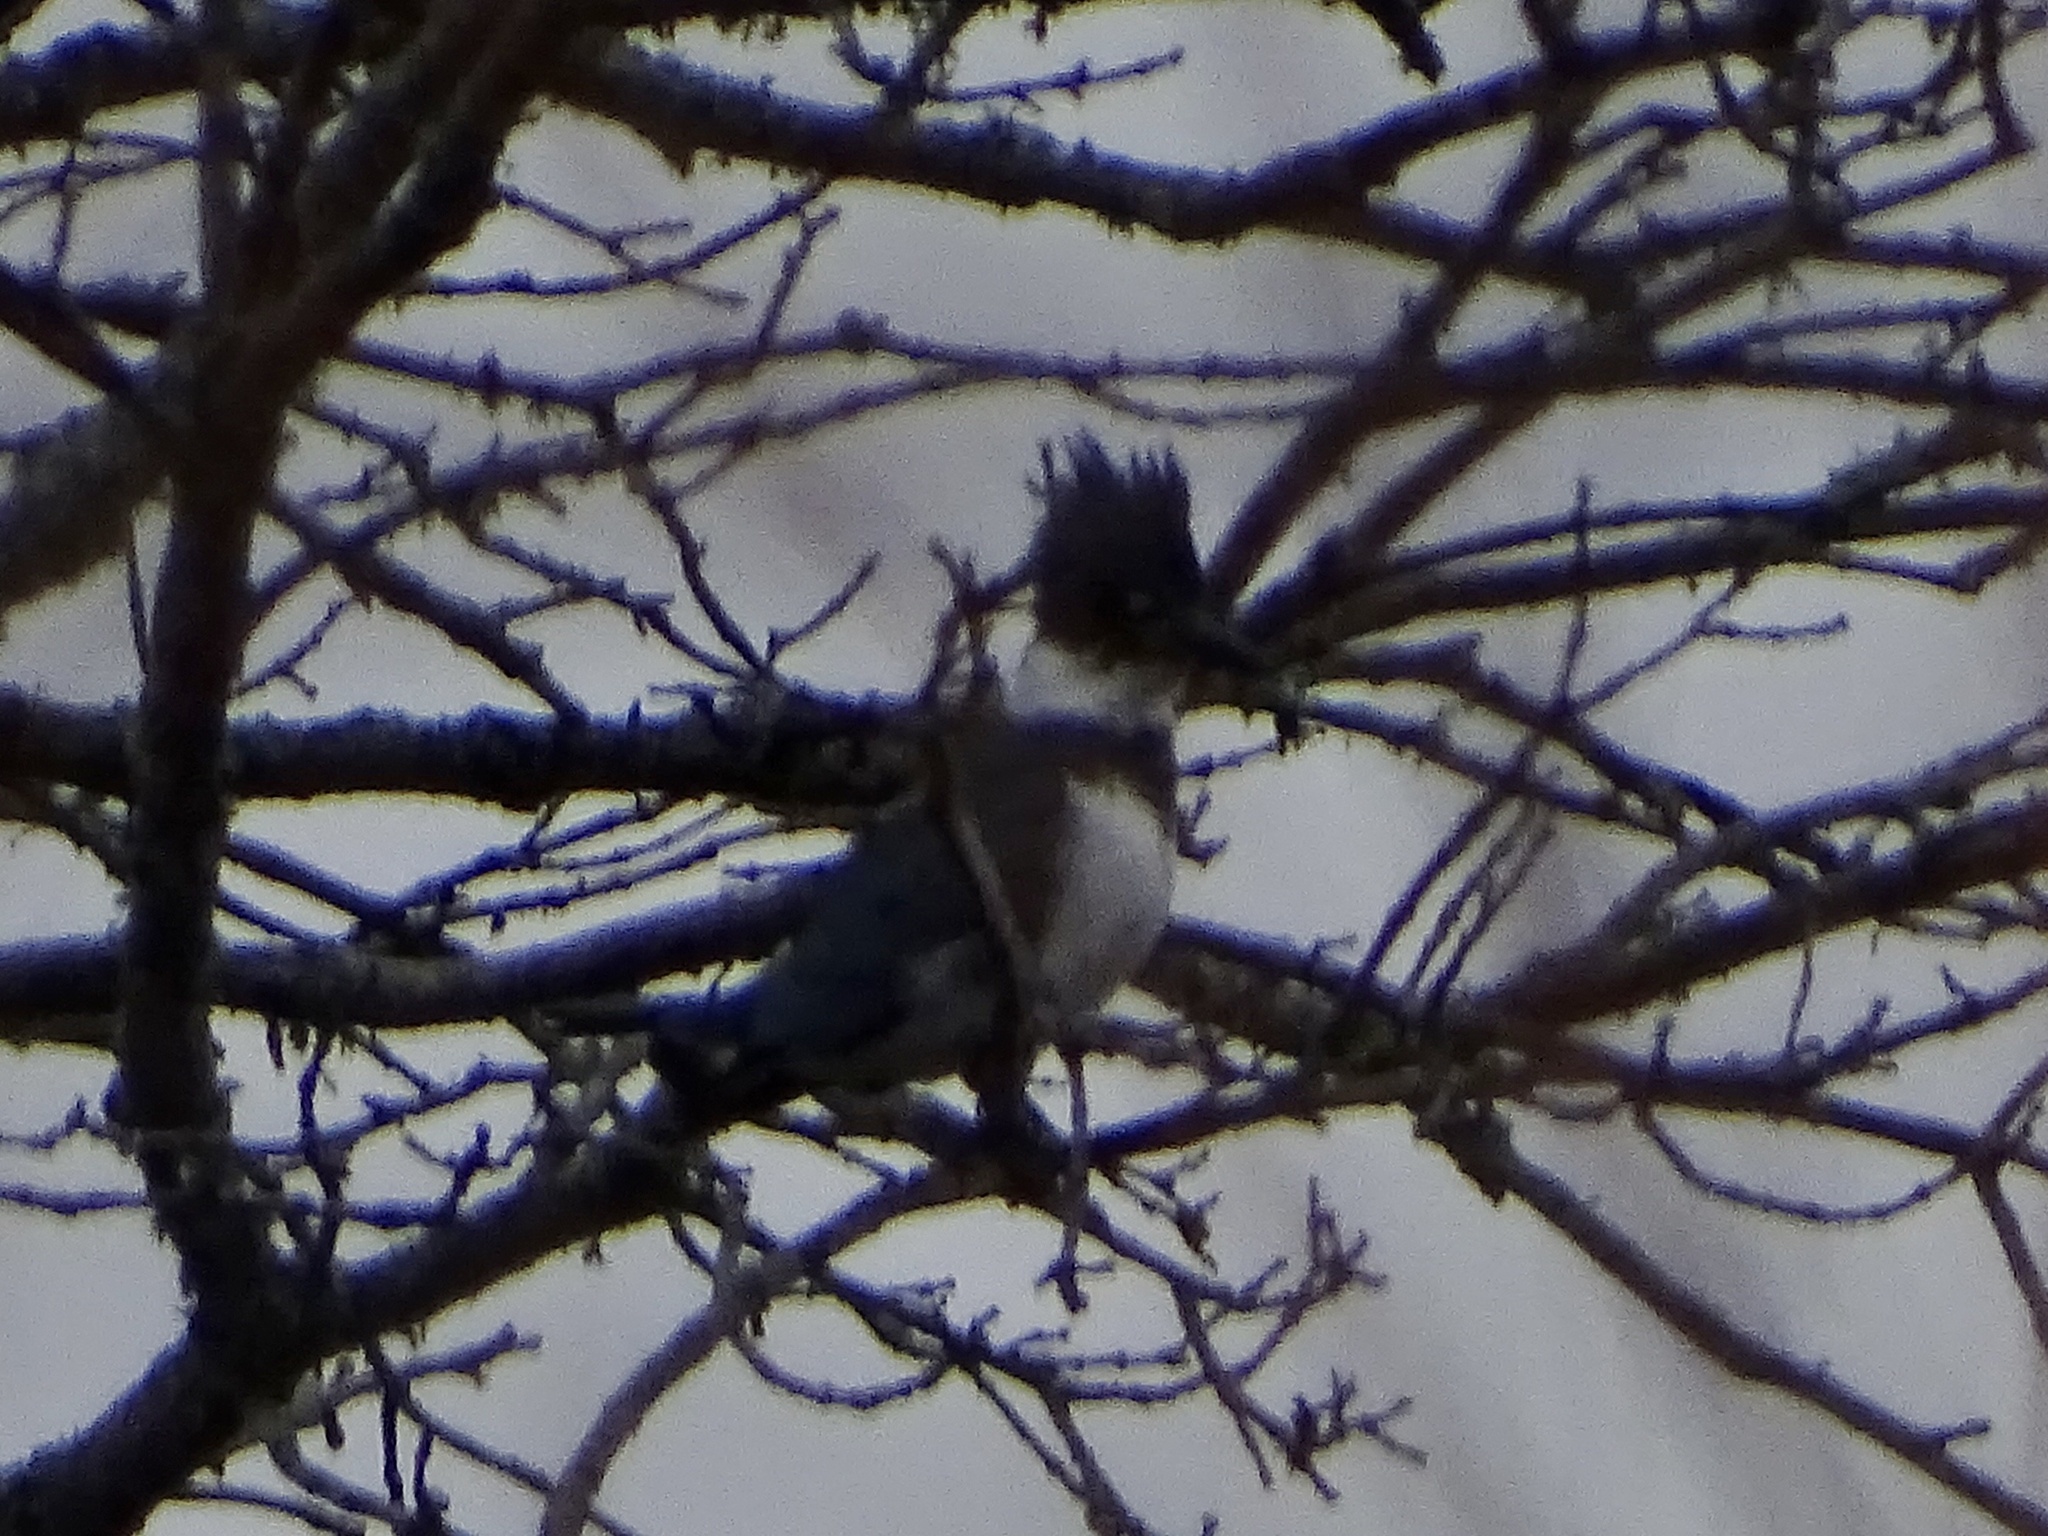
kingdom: Animalia
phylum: Chordata
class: Aves
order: Coraciiformes
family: Alcedinidae
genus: Megaceryle
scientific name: Megaceryle alcyon
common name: Belted kingfisher
